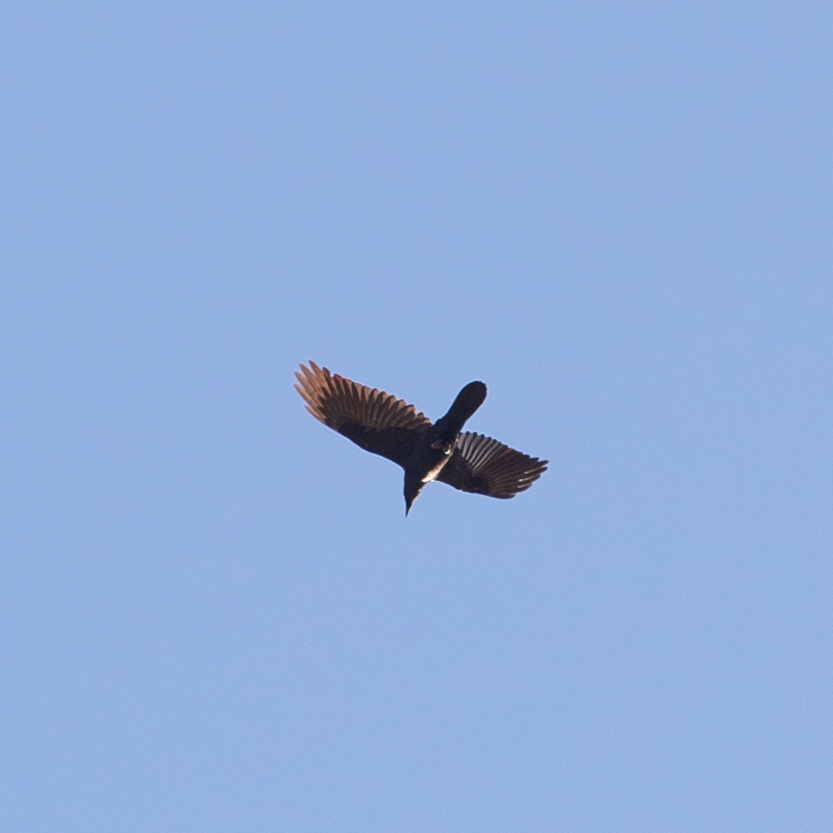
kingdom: Animalia
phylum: Chordata
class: Aves
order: Passeriformes
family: Corvidae
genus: Corvus
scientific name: Corvus corone
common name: Carrion crow
